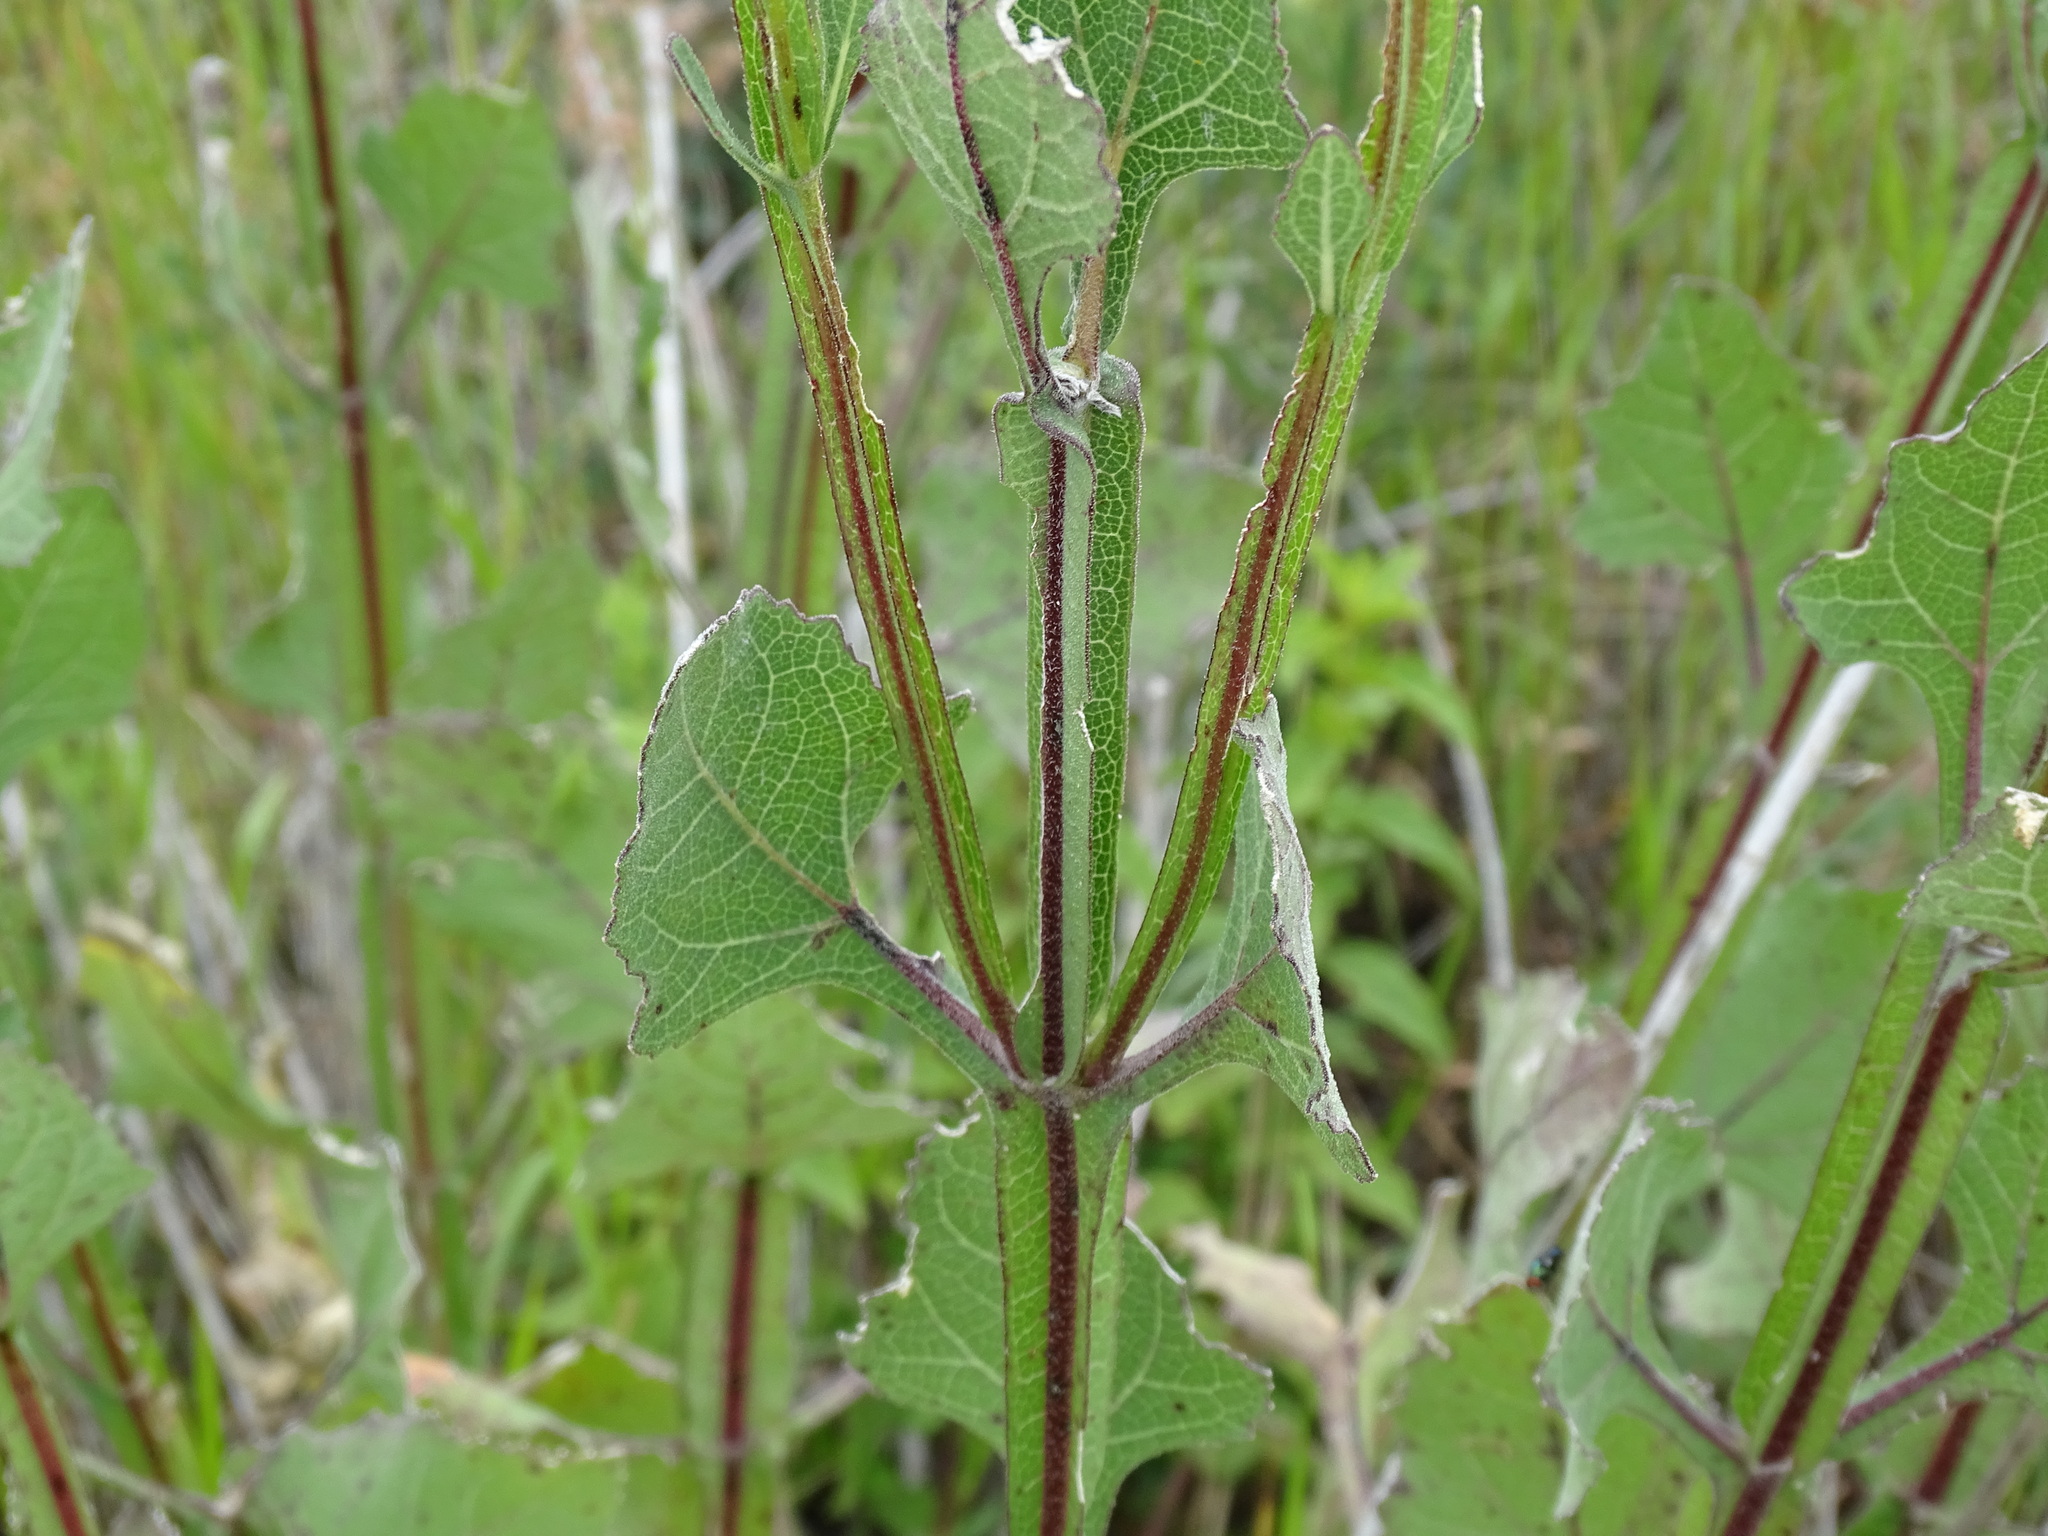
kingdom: Plantae
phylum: Tracheophyta
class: Magnoliopsida
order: Asterales
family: Asteraceae
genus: Verbesina
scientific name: Verbesina tetraptera
